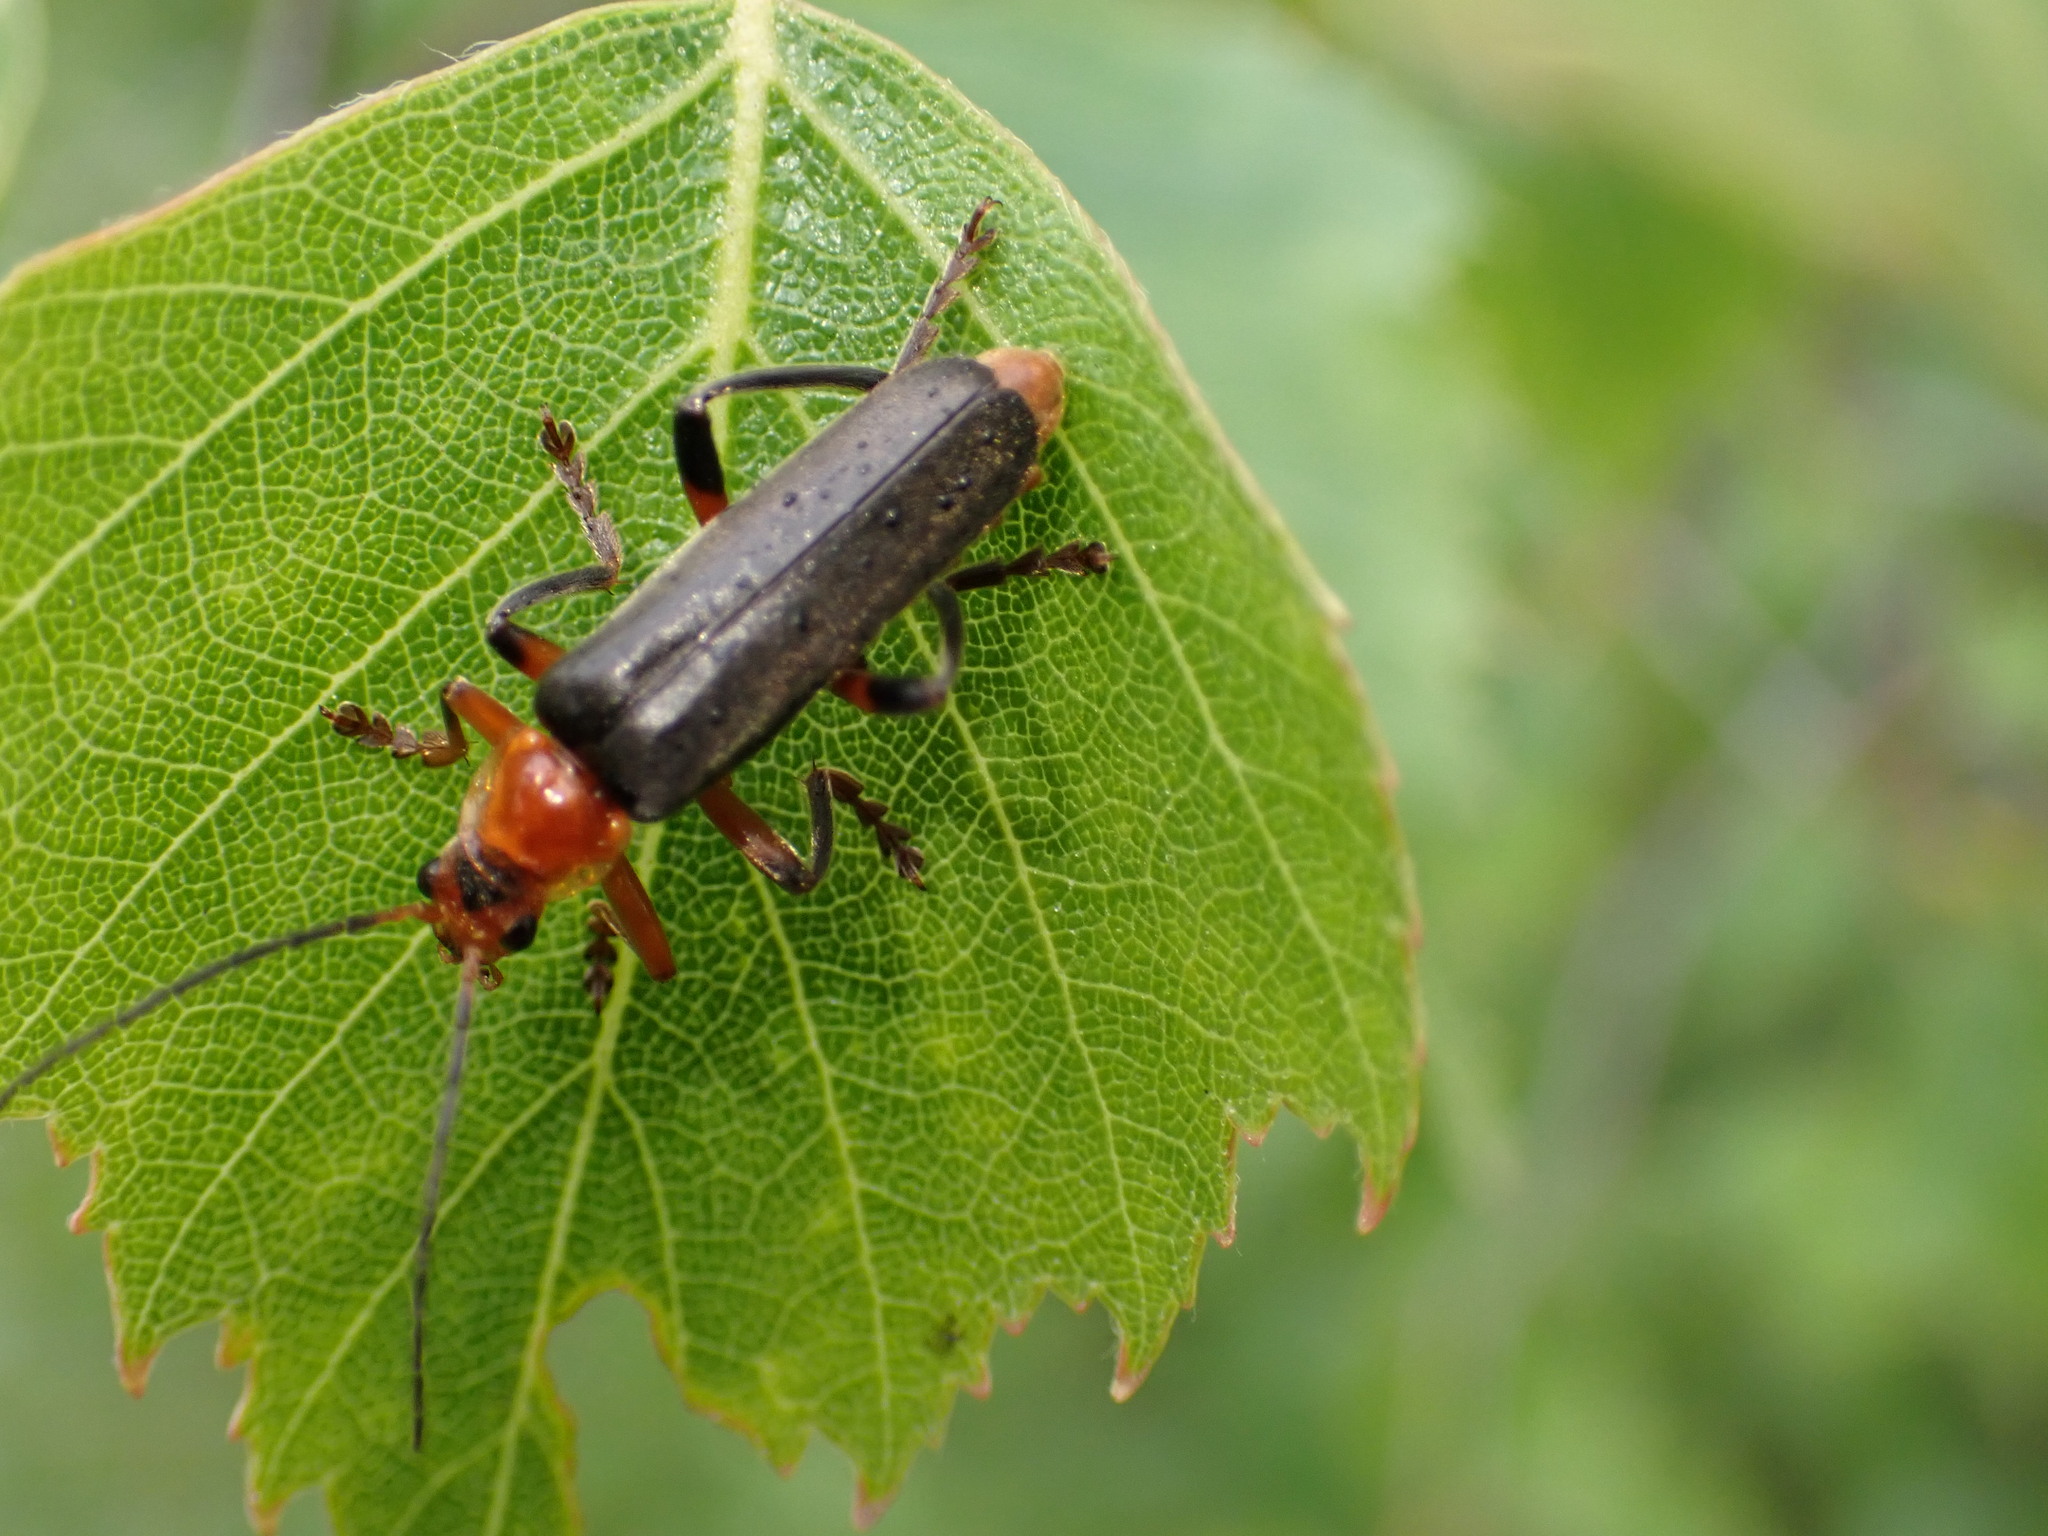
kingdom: Animalia
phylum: Arthropoda
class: Insecta
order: Coleoptera
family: Cantharidae
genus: Cantharis
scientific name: Cantharis livida
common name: Livid soldier beetle
